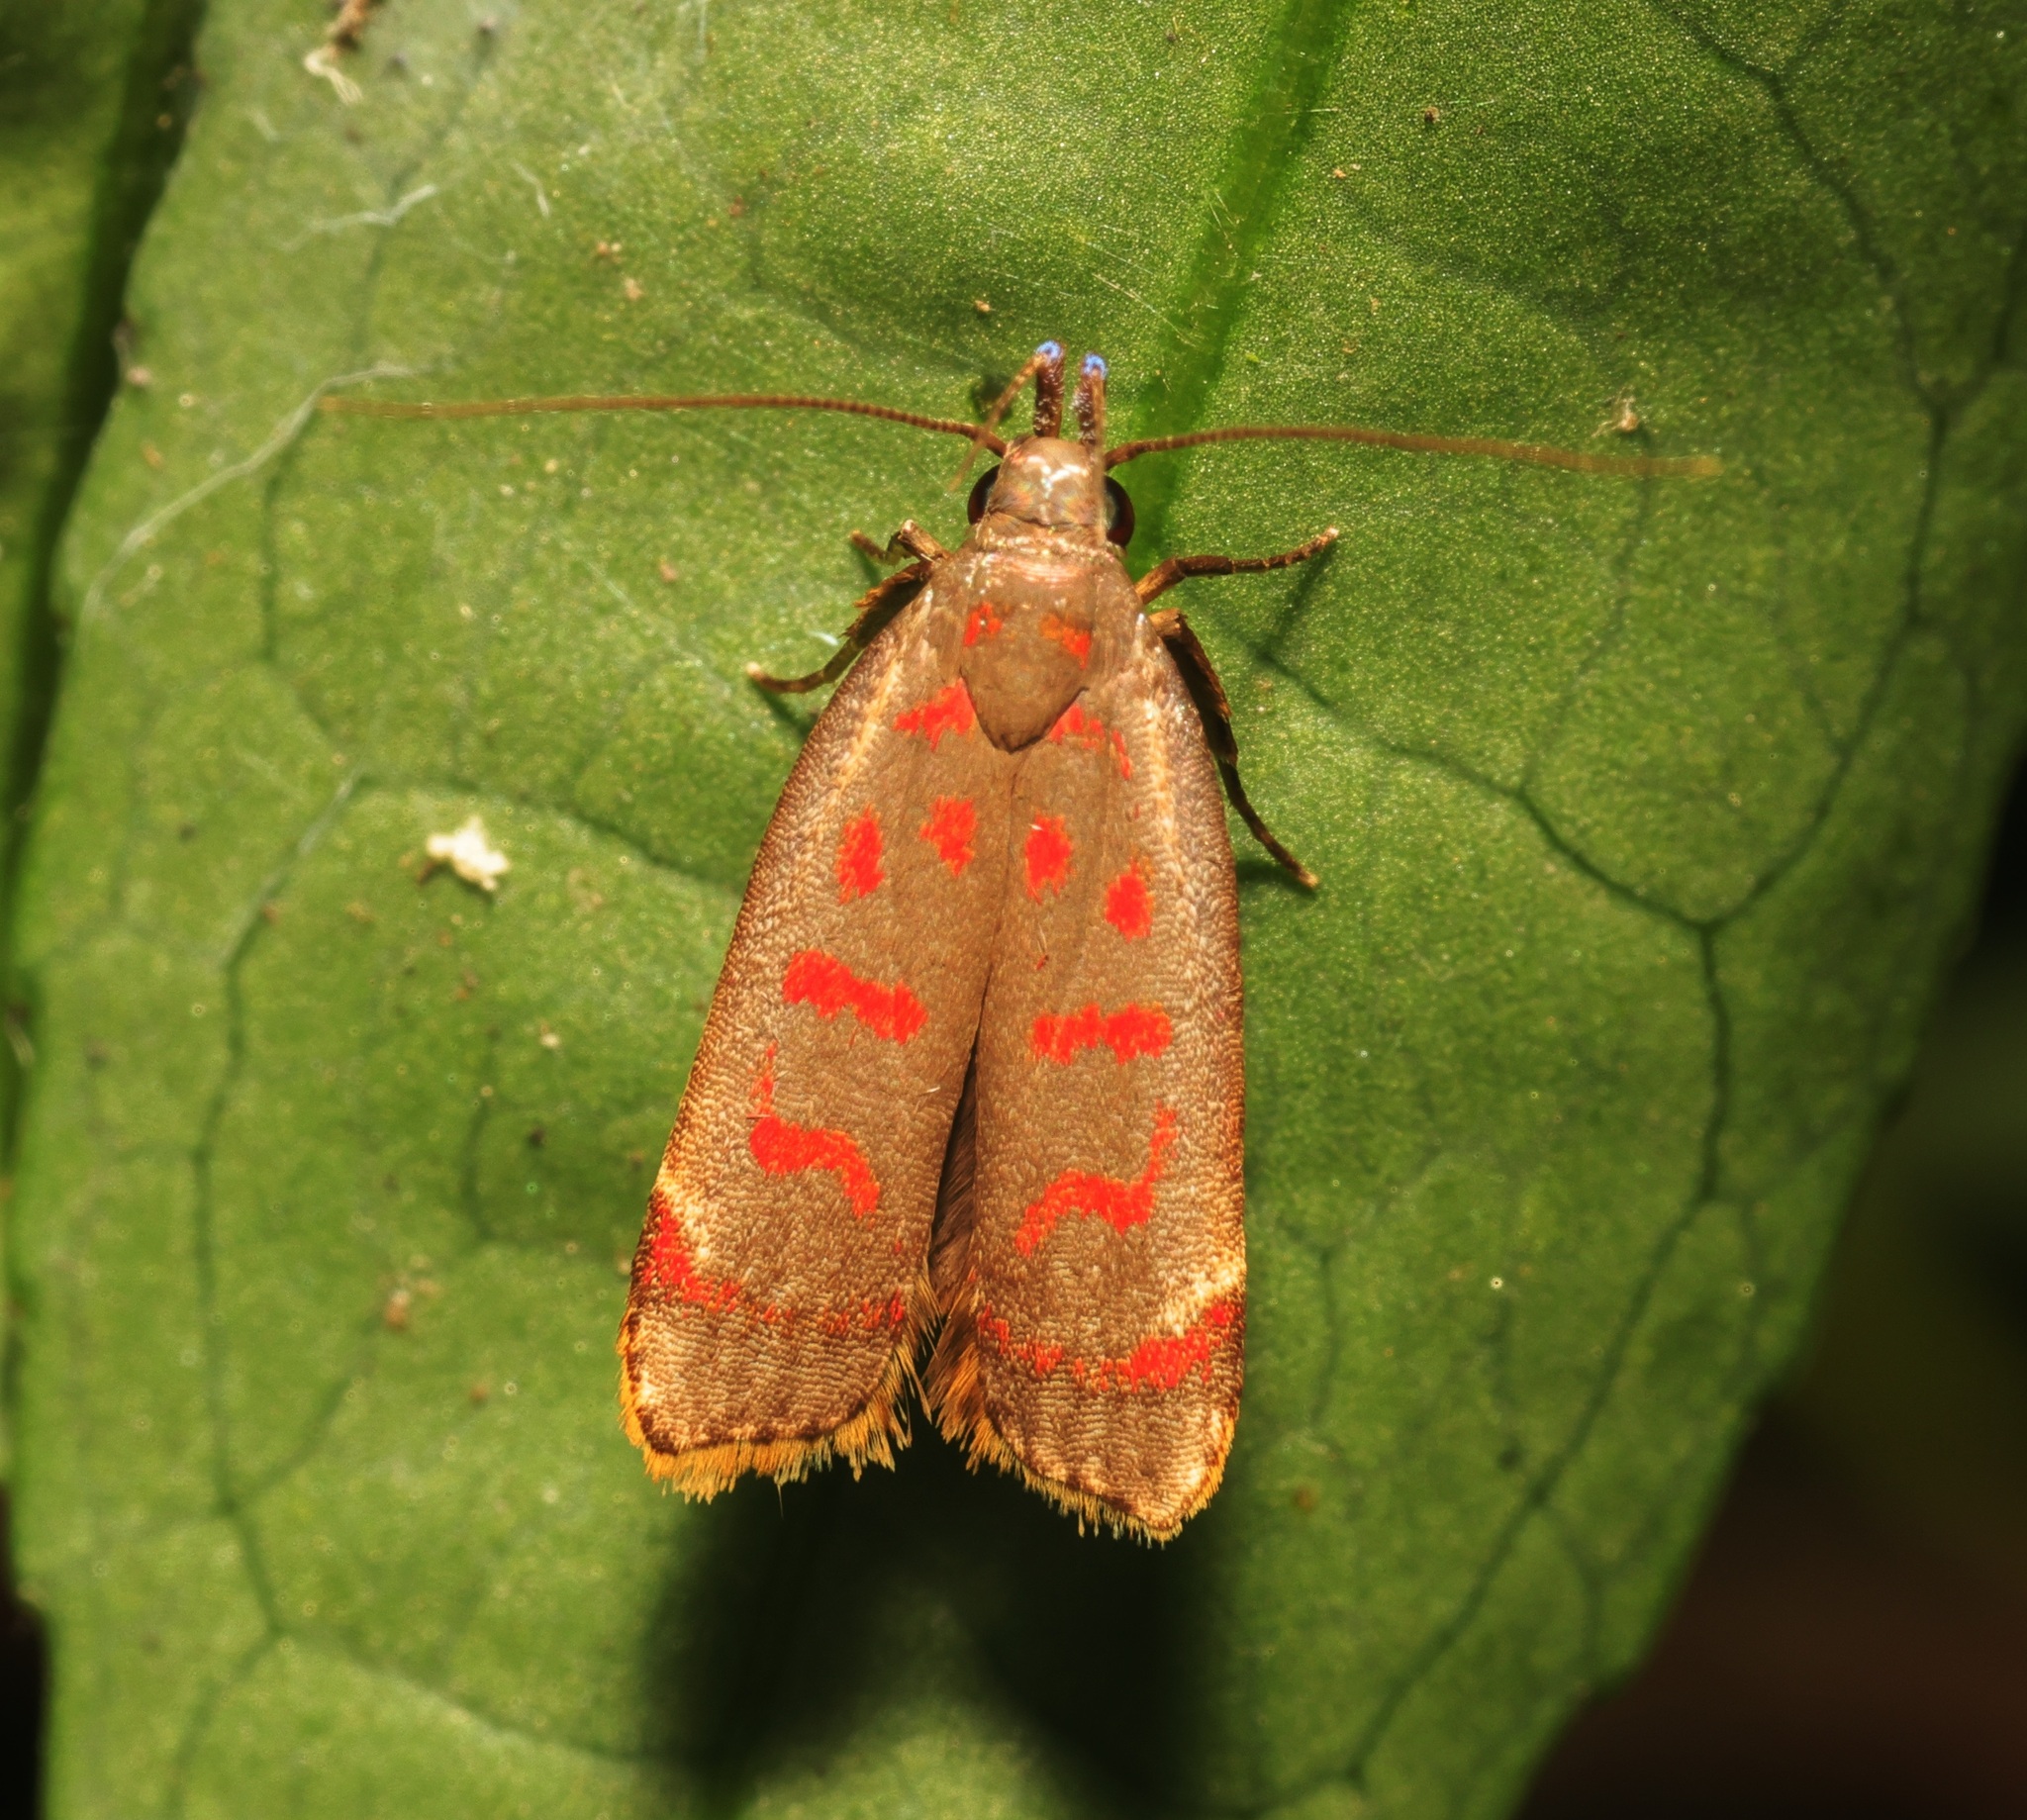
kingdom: Animalia
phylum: Arthropoda
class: Insecta
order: Lepidoptera
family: Gelechiidae
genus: Dichomeris
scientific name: Dichomeris sandycitis
